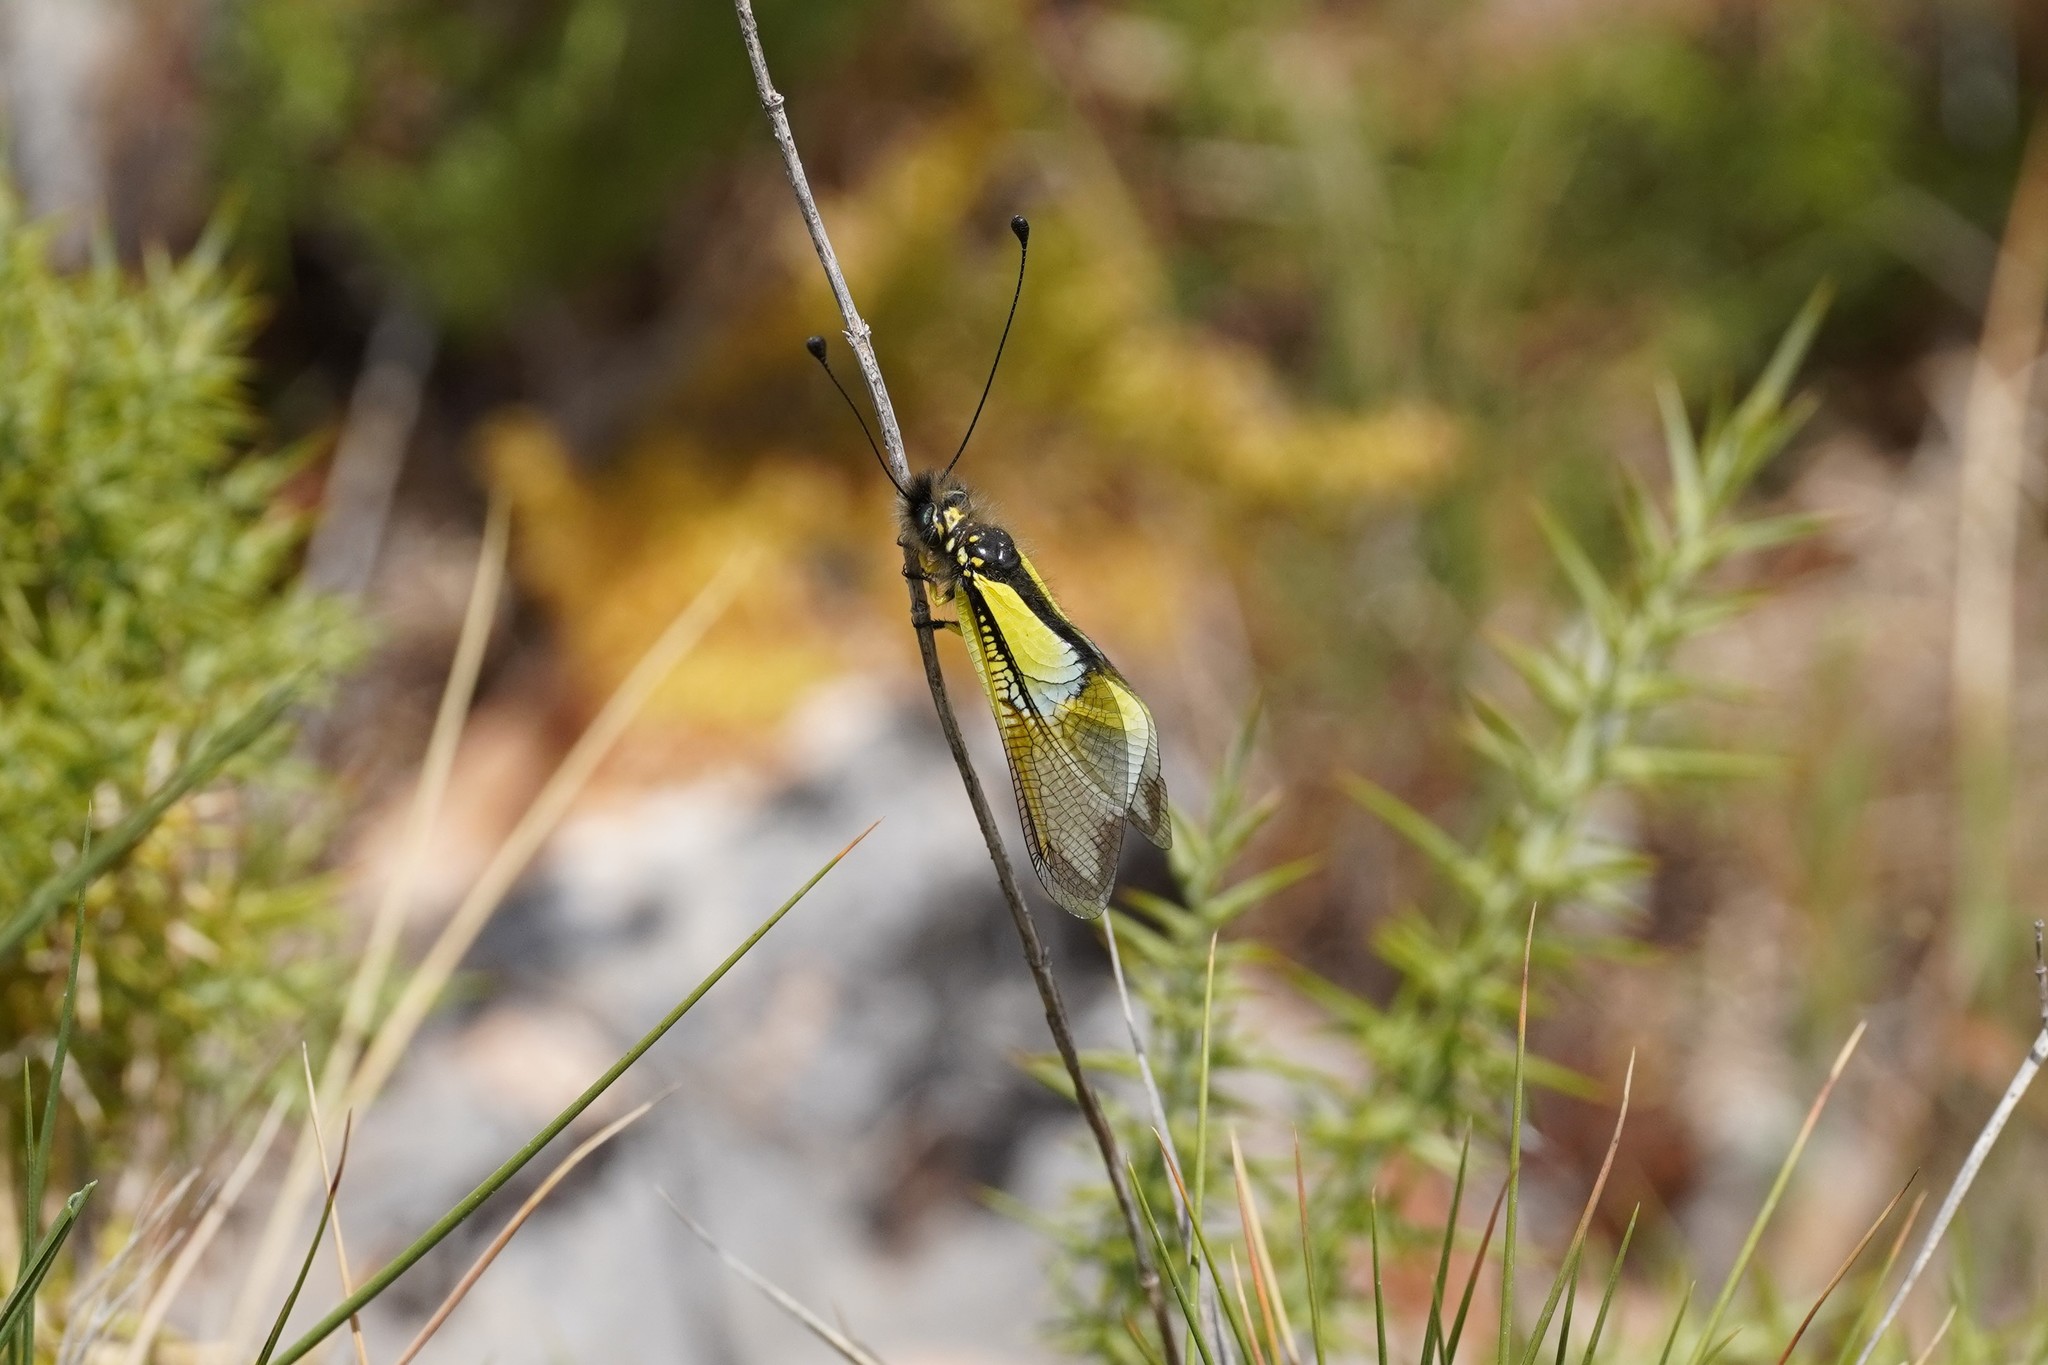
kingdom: Animalia
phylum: Arthropoda
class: Insecta
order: Neuroptera
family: Ascalaphidae
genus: Libelloides
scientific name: Libelloides baeticus
